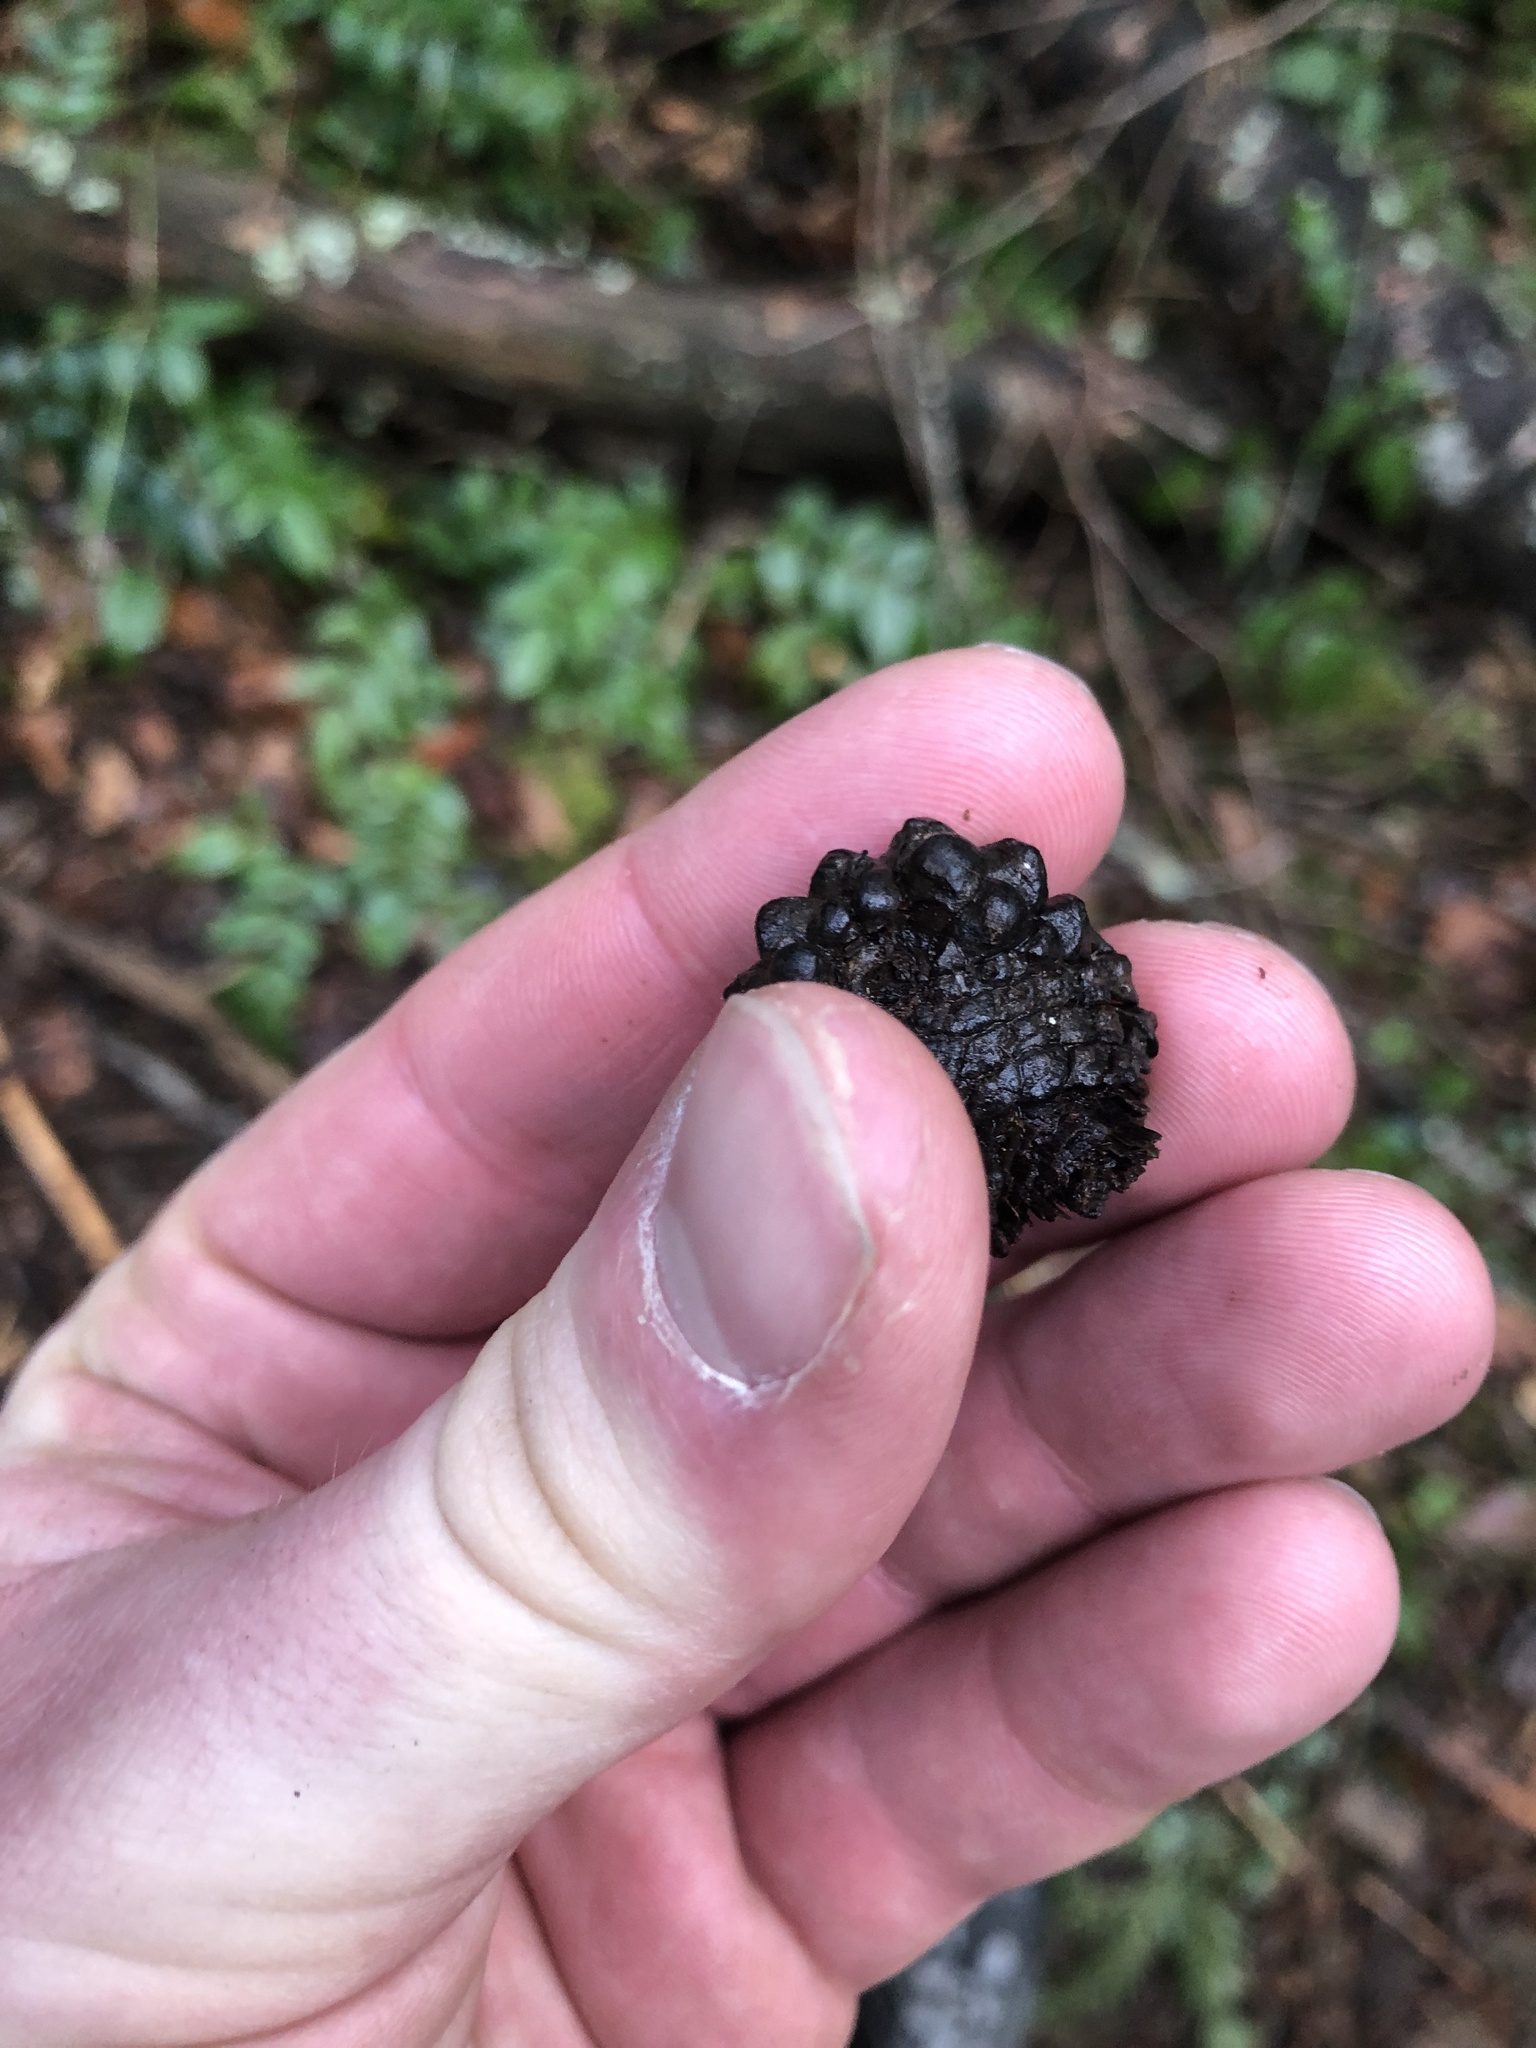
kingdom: Plantae
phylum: Tracheophyta
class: Pinopsida
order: Pinales
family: Pinaceae
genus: Pinus
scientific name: Pinus contorta
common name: Lodgepole pine
